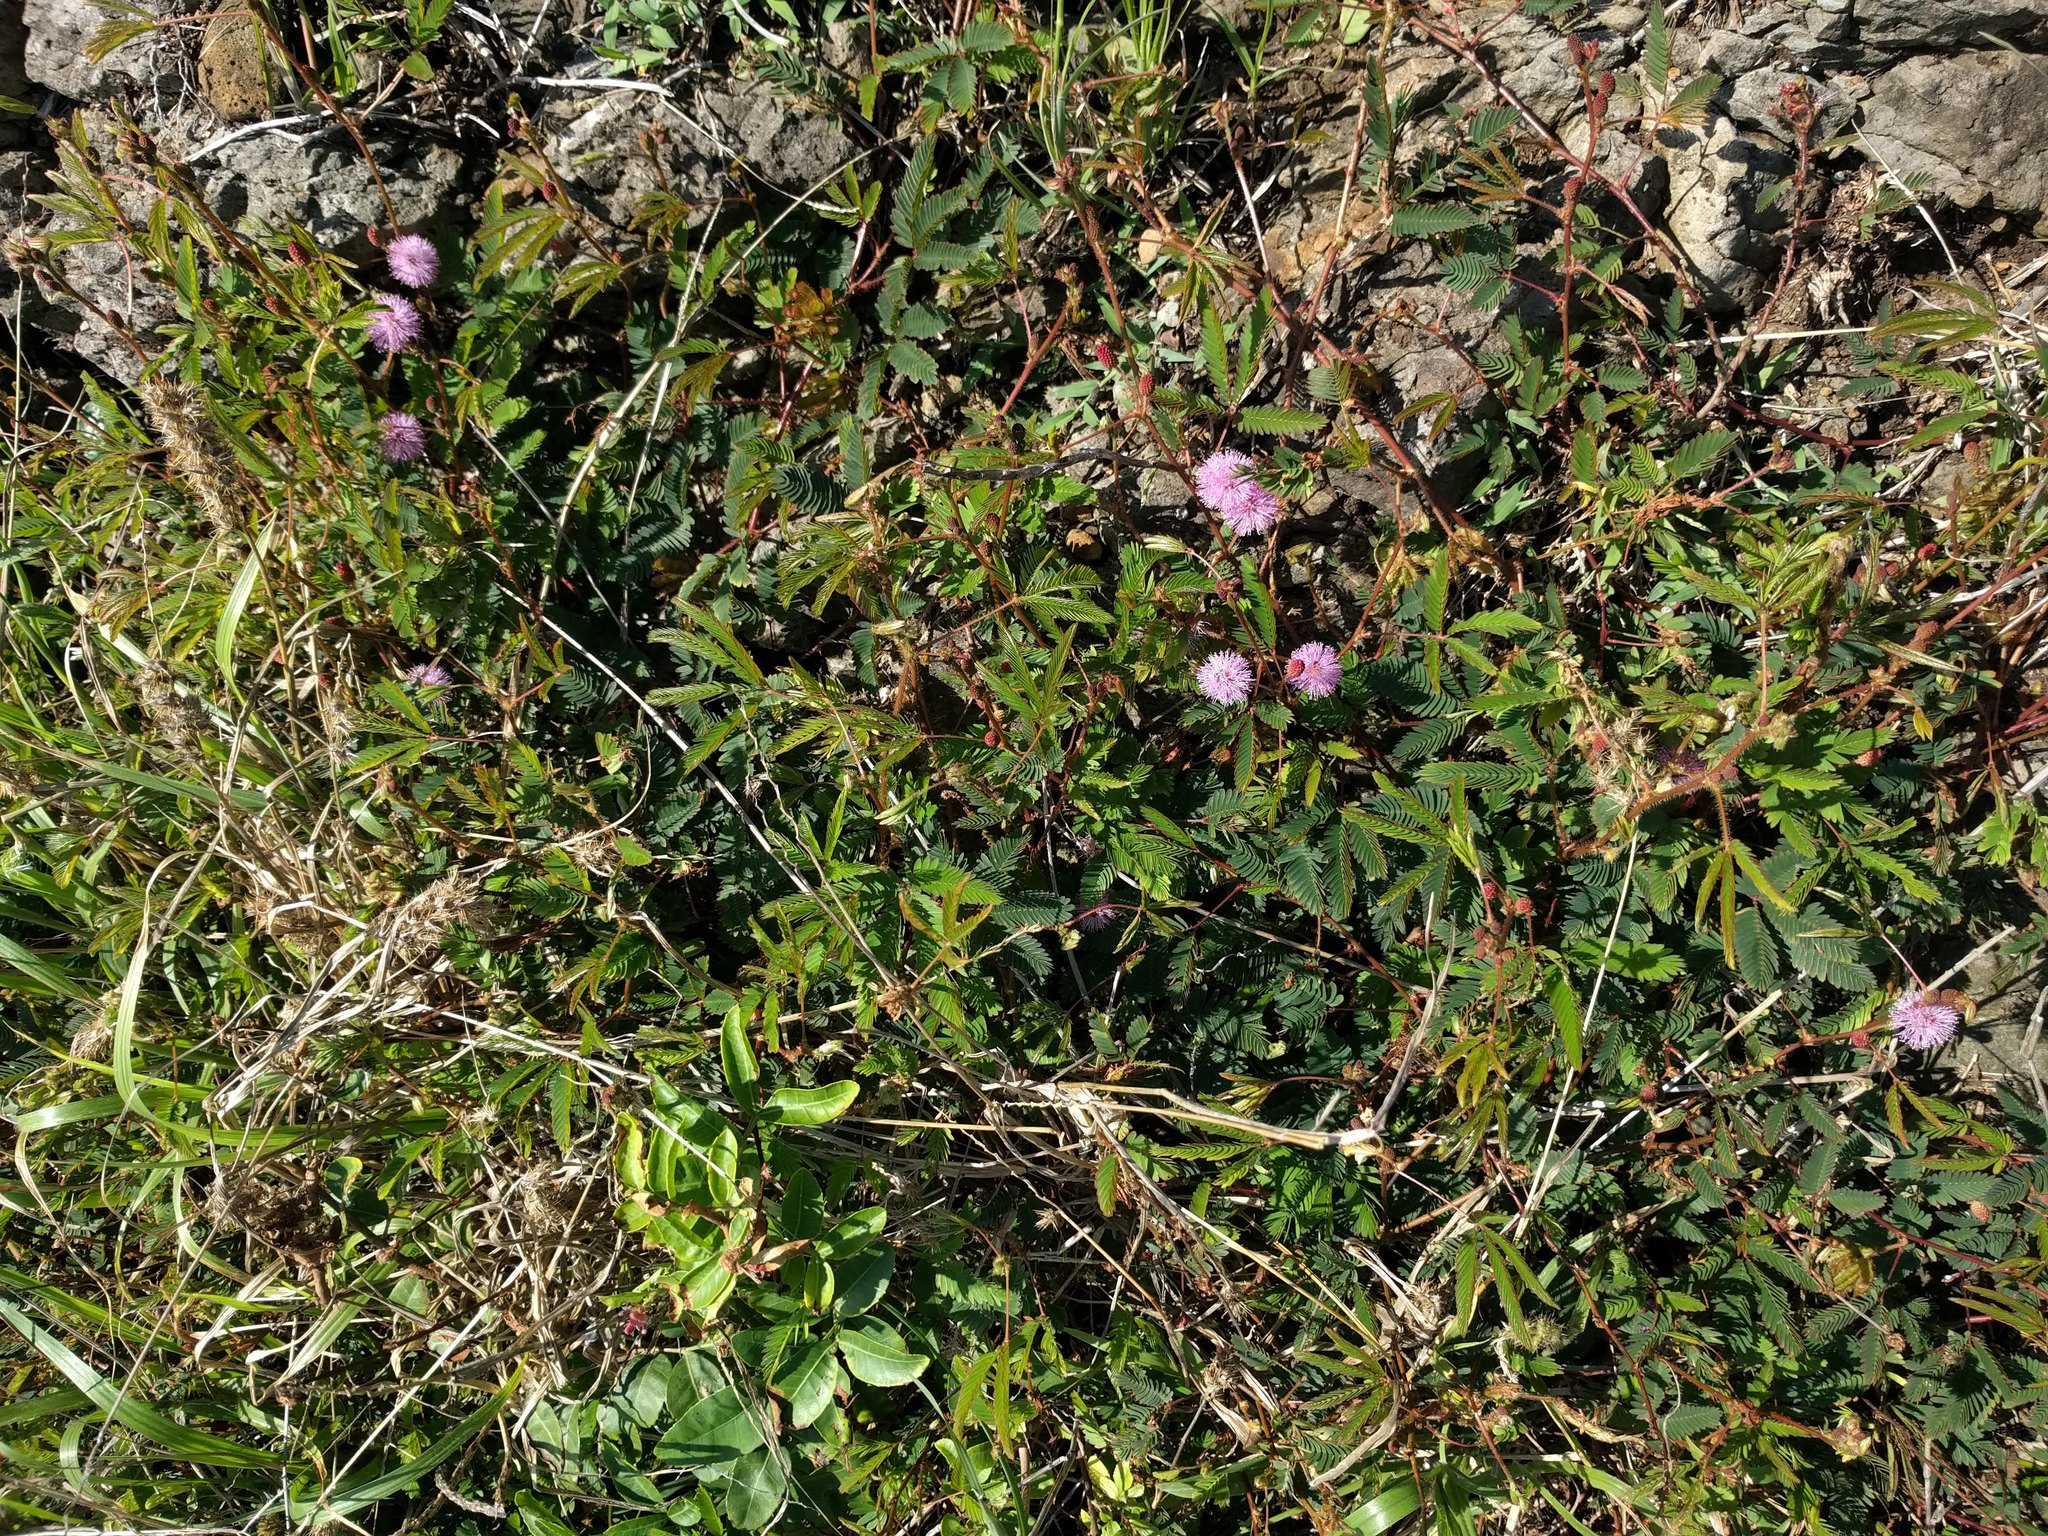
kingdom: Plantae
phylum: Tracheophyta
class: Magnoliopsida
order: Fabales
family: Fabaceae
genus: Mimosa
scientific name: Mimosa pudica
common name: Sensitive plant
